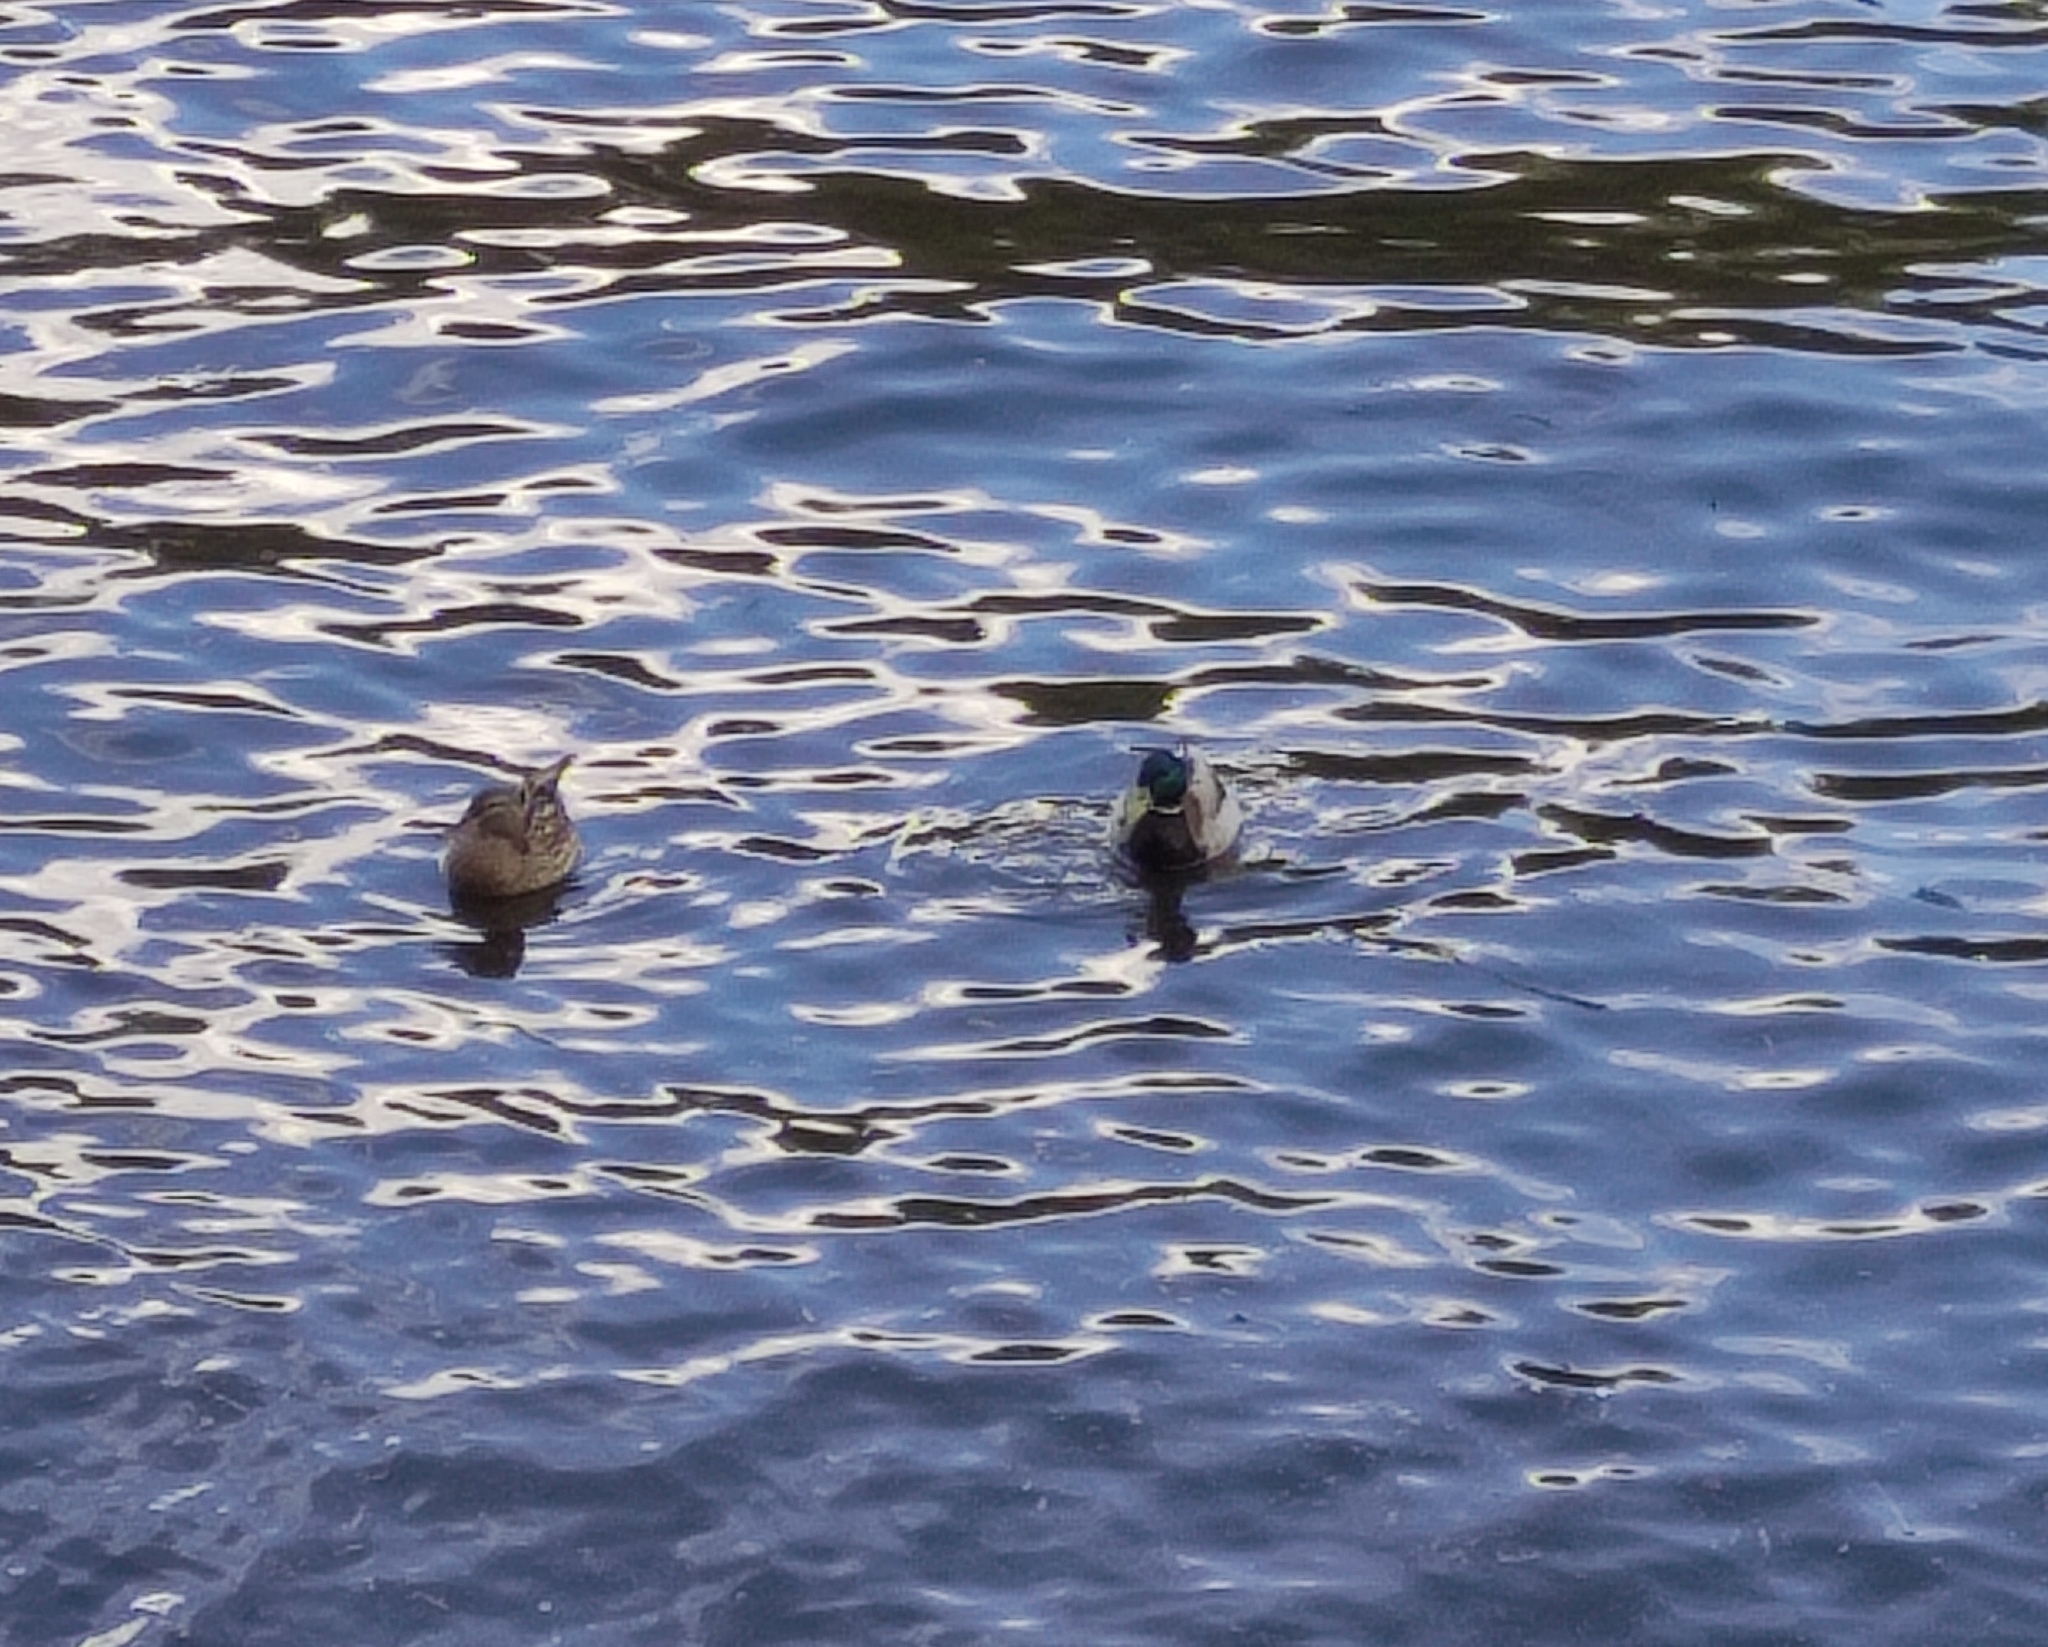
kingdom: Animalia
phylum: Chordata
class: Aves
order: Anseriformes
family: Anatidae
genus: Anas
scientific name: Anas platyrhynchos
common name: Mallard
